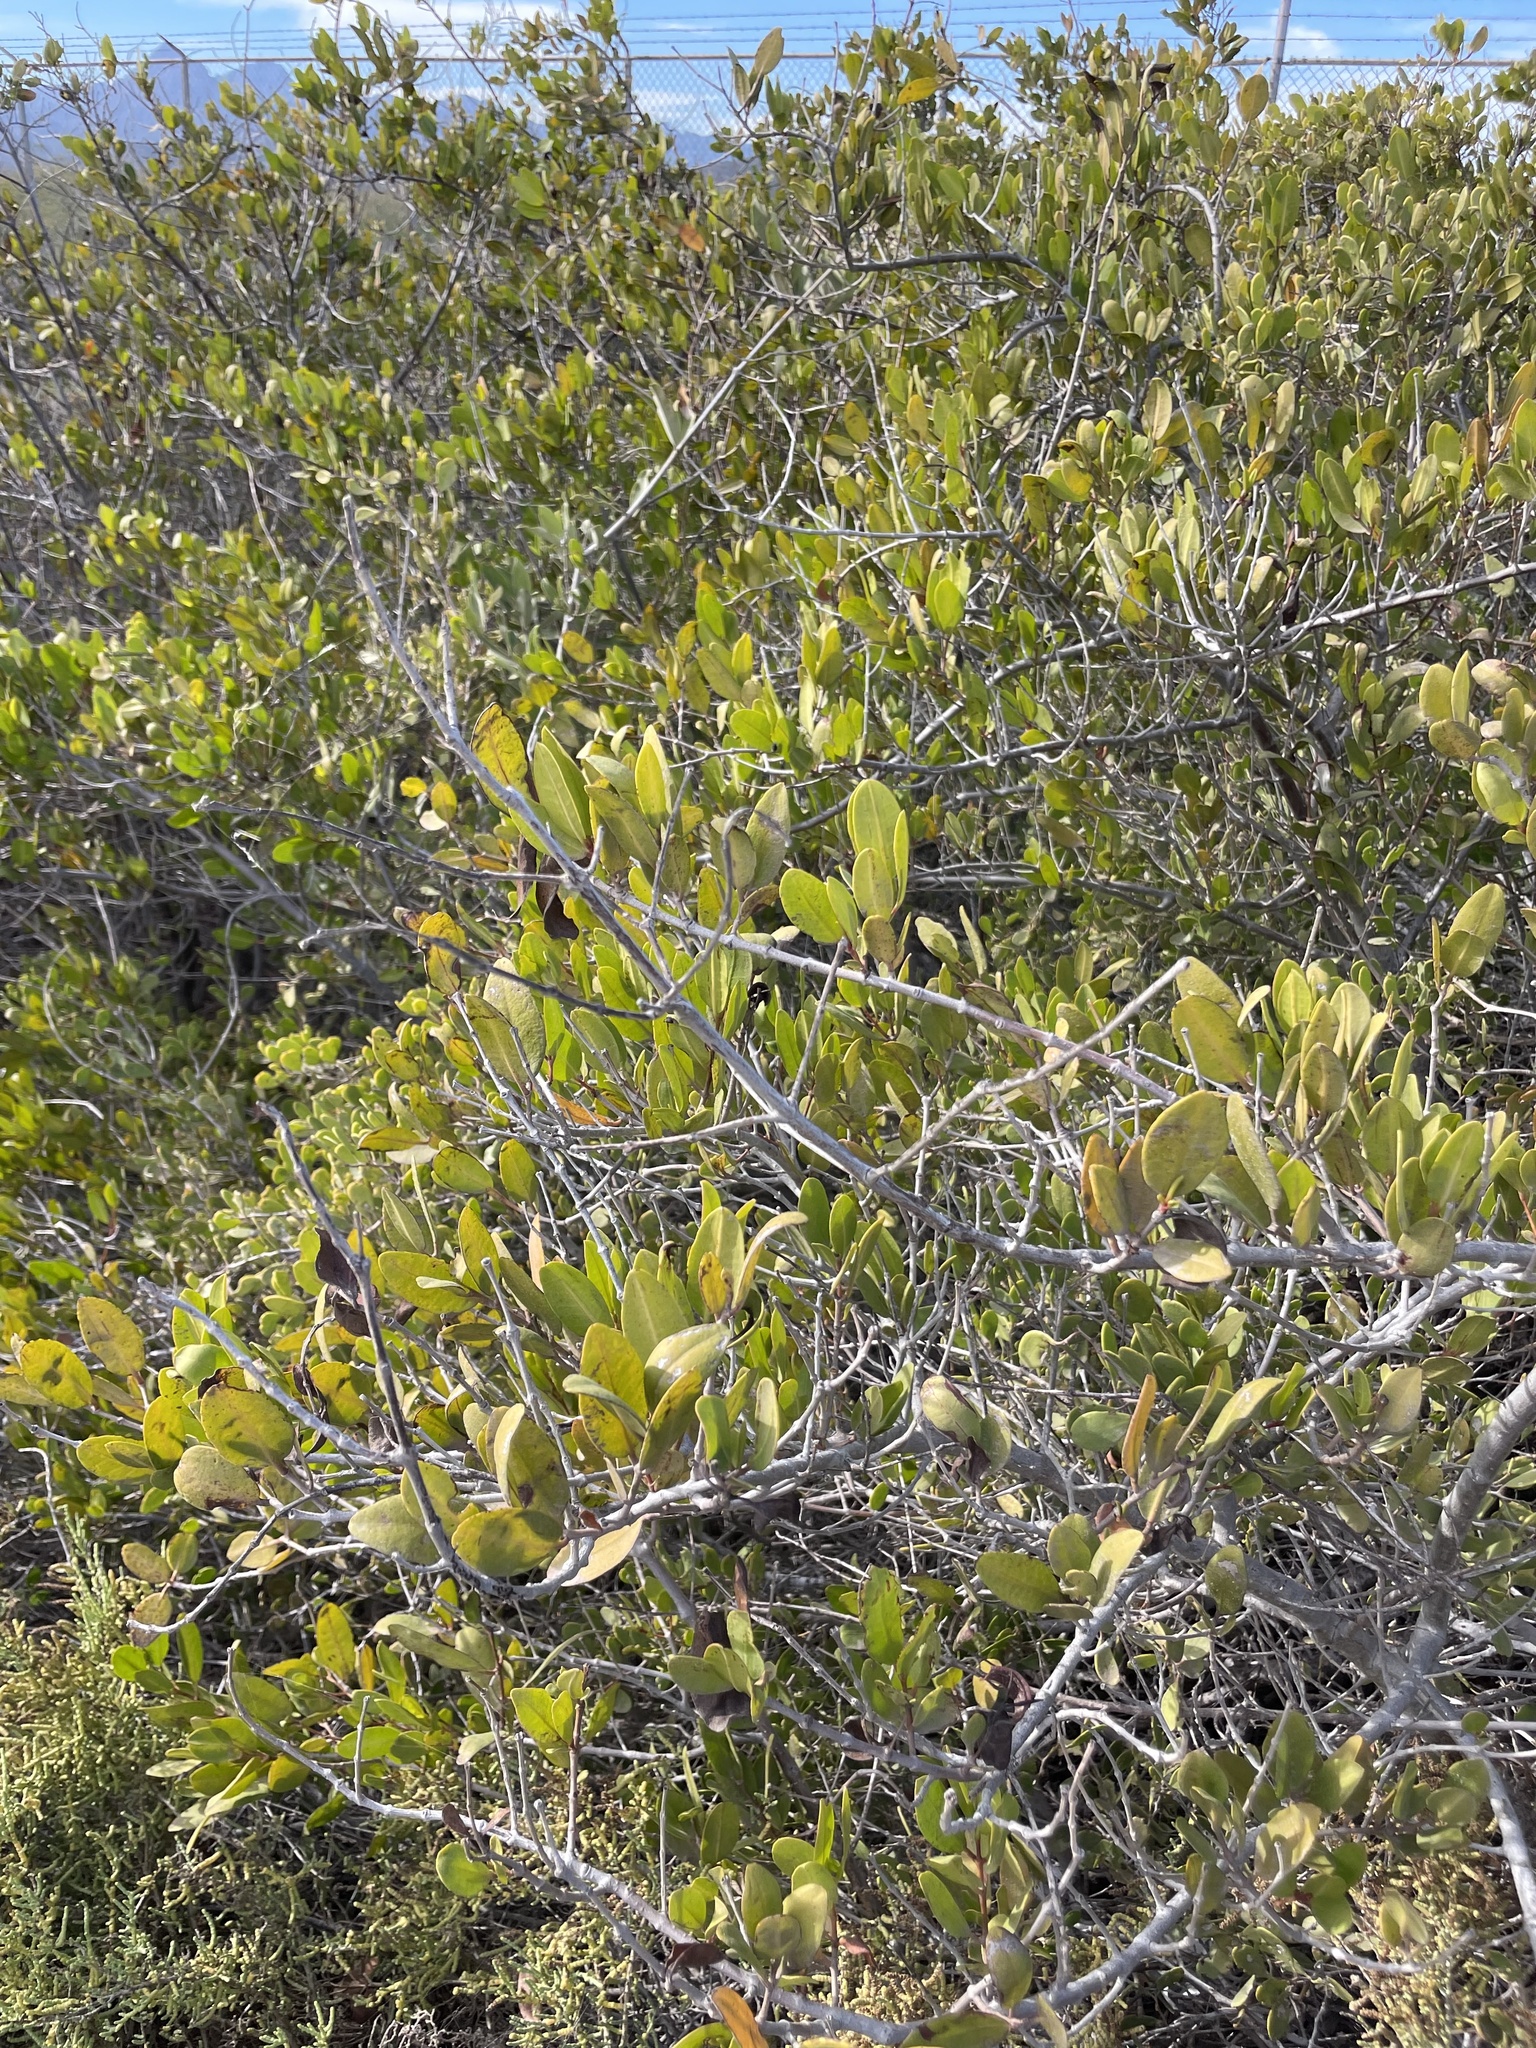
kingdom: Plantae
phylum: Tracheophyta
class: Magnoliopsida
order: Myrtales
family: Combretaceae
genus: Laguncularia
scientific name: Laguncularia racemosa
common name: White mangrove
